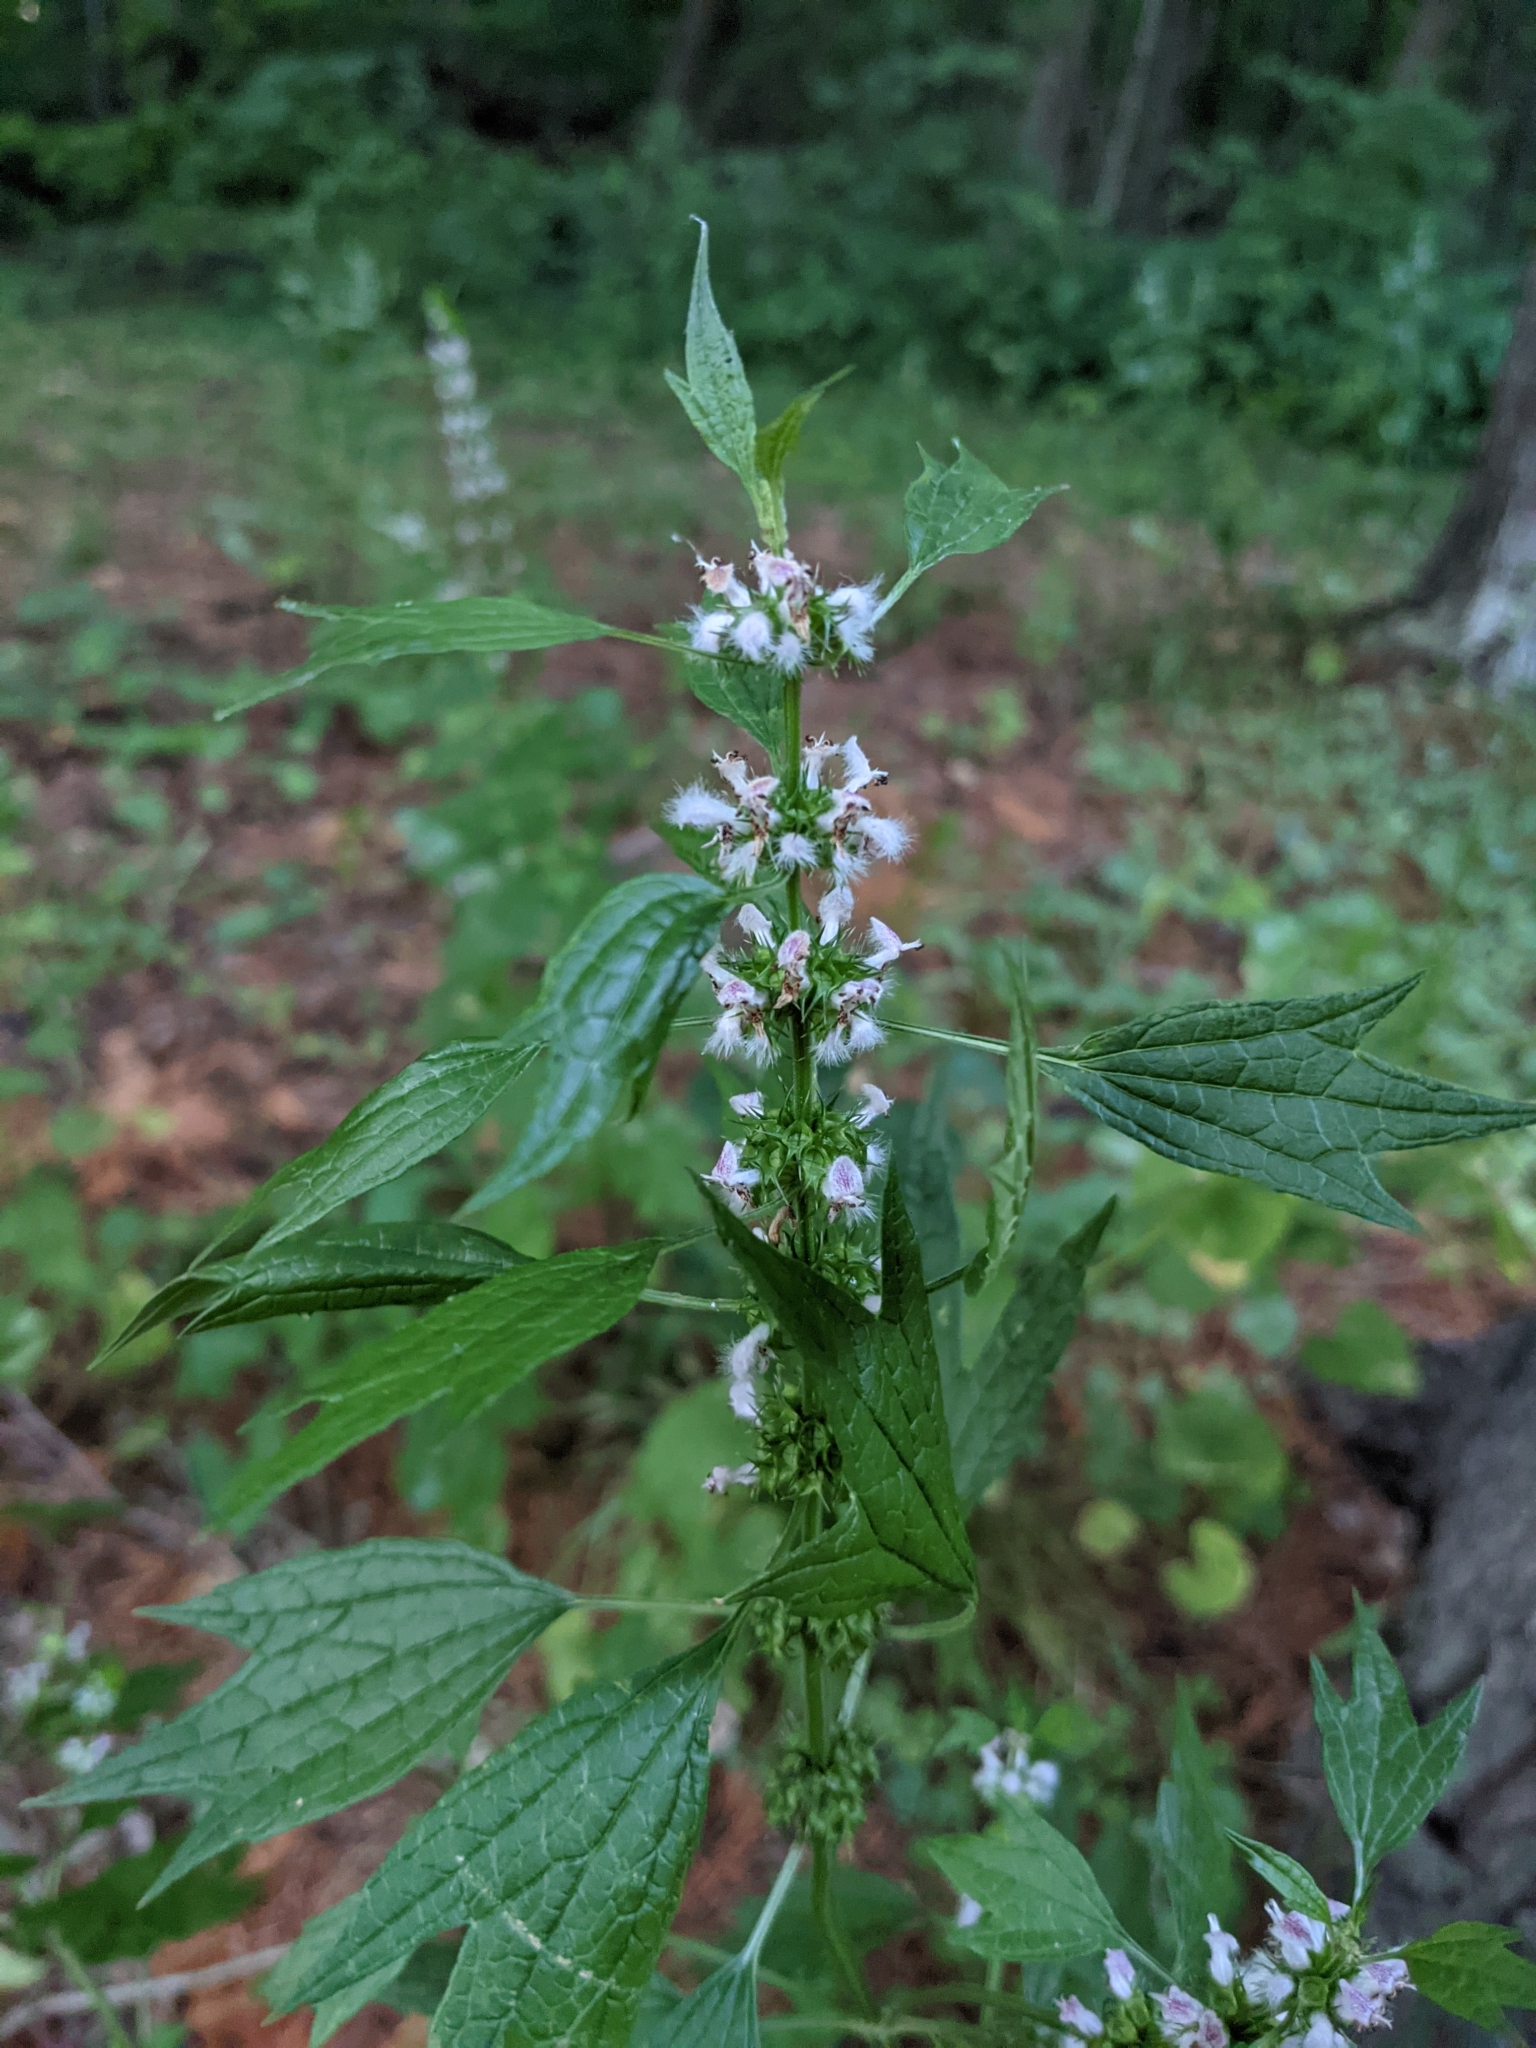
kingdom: Plantae
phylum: Tracheophyta
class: Magnoliopsida
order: Lamiales
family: Lamiaceae
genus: Leonurus
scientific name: Leonurus cardiaca
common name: Motherwort
